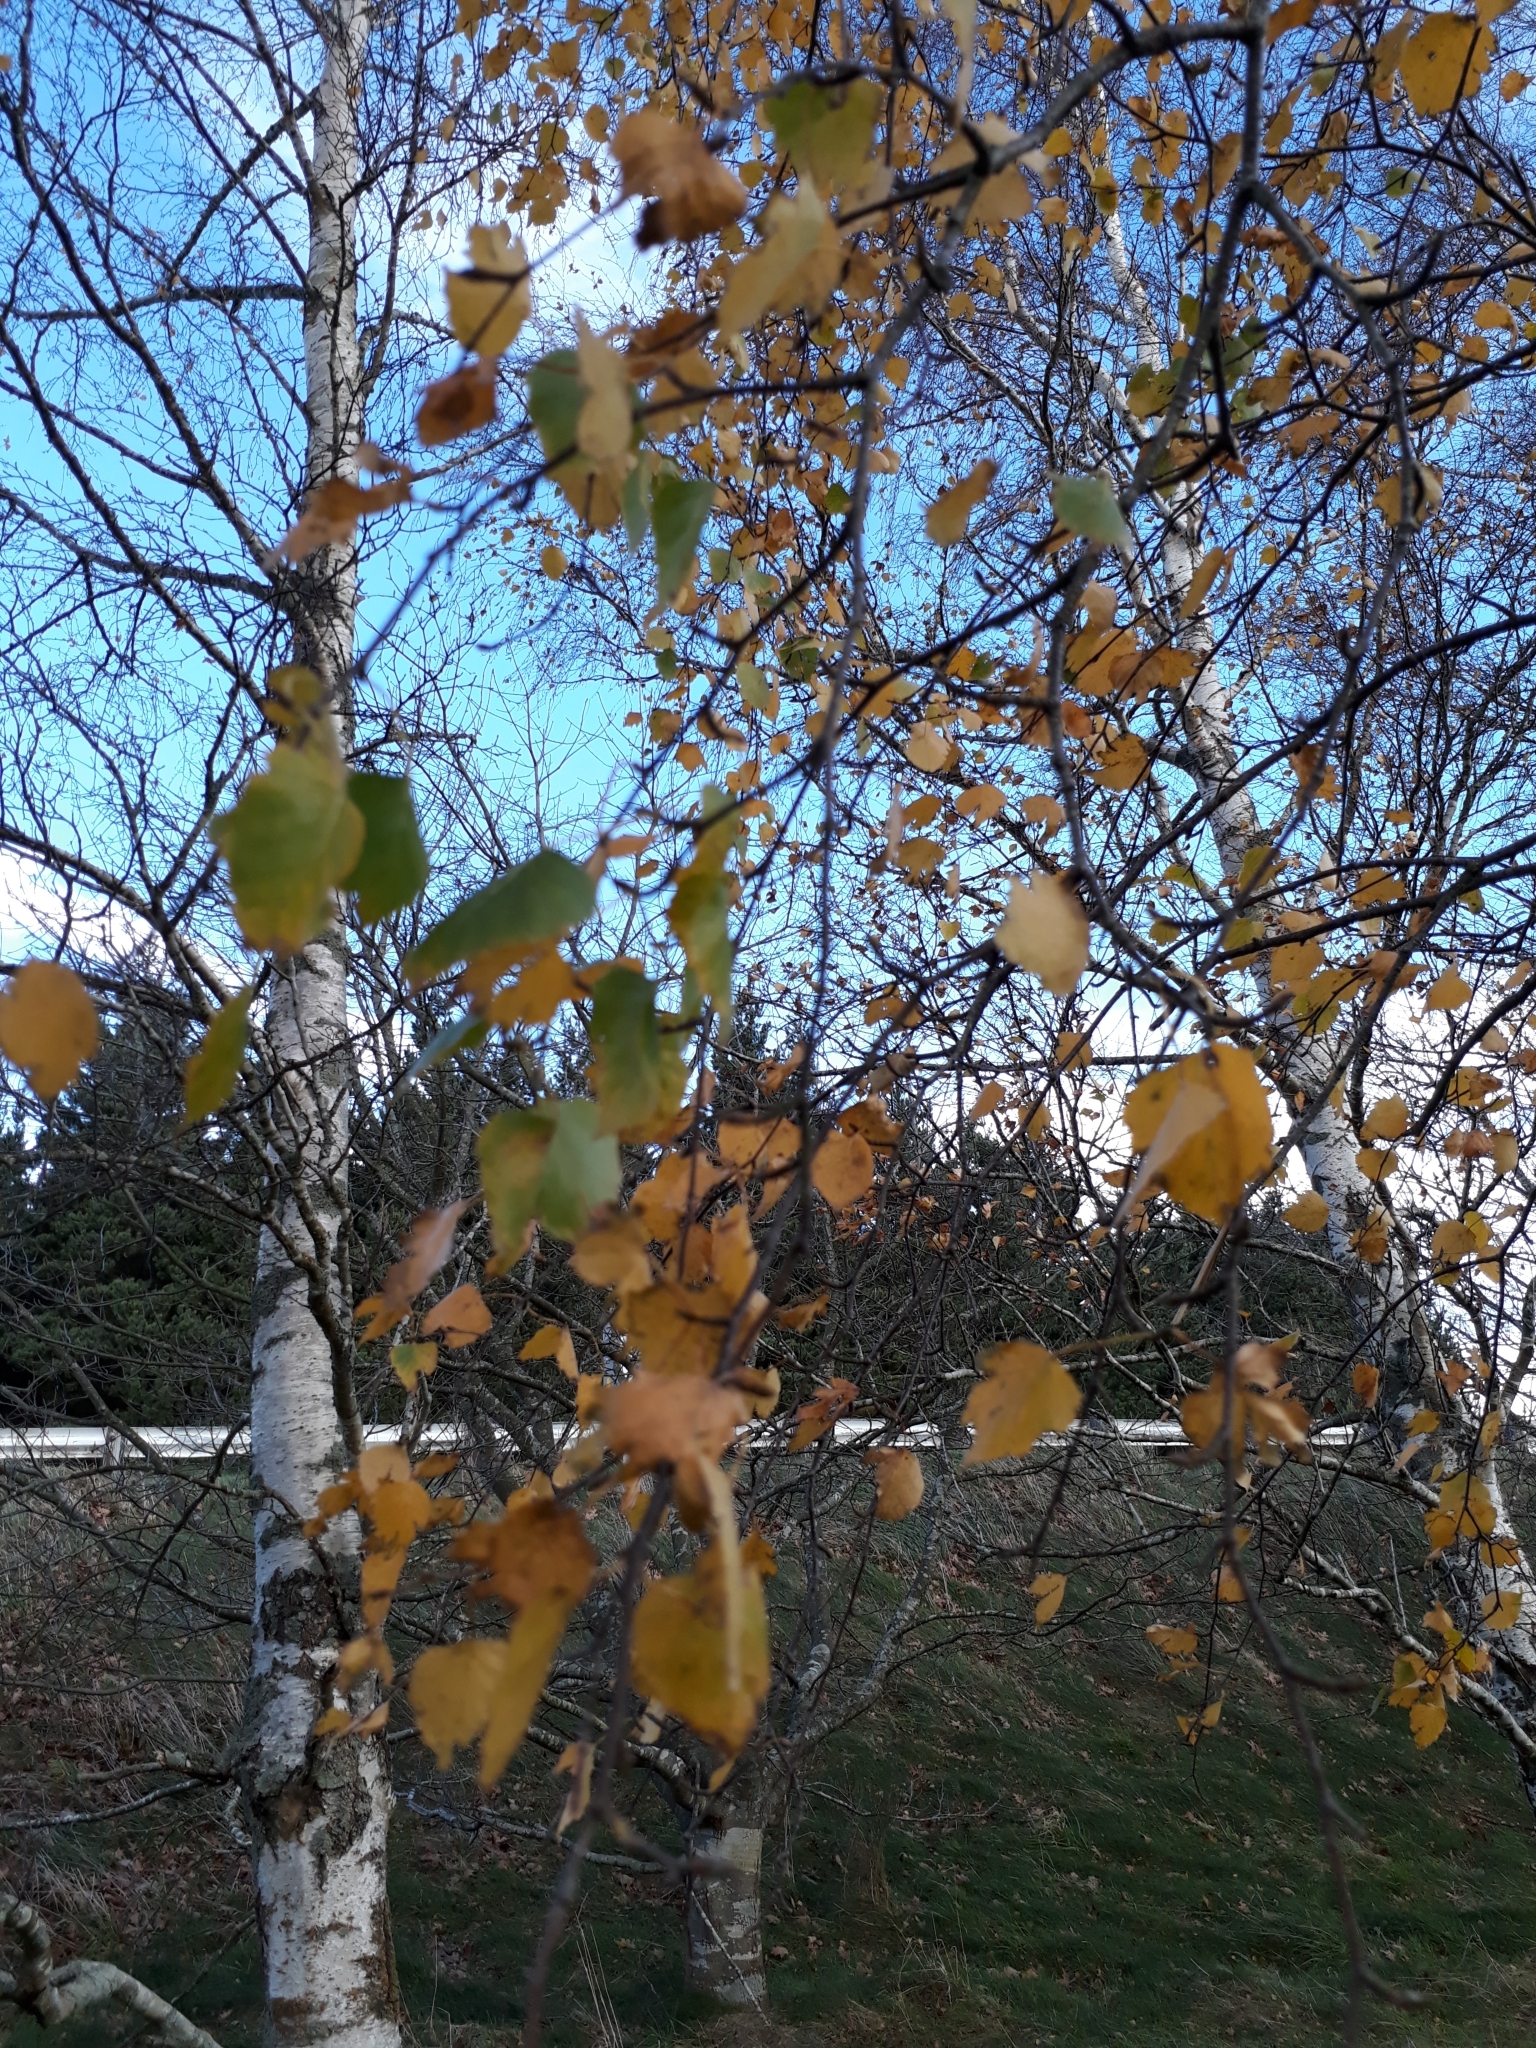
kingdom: Plantae
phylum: Tracheophyta
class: Magnoliopsida
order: Fagales
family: Betulaceae
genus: Betula
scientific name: Betula pendula
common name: Silver birch
